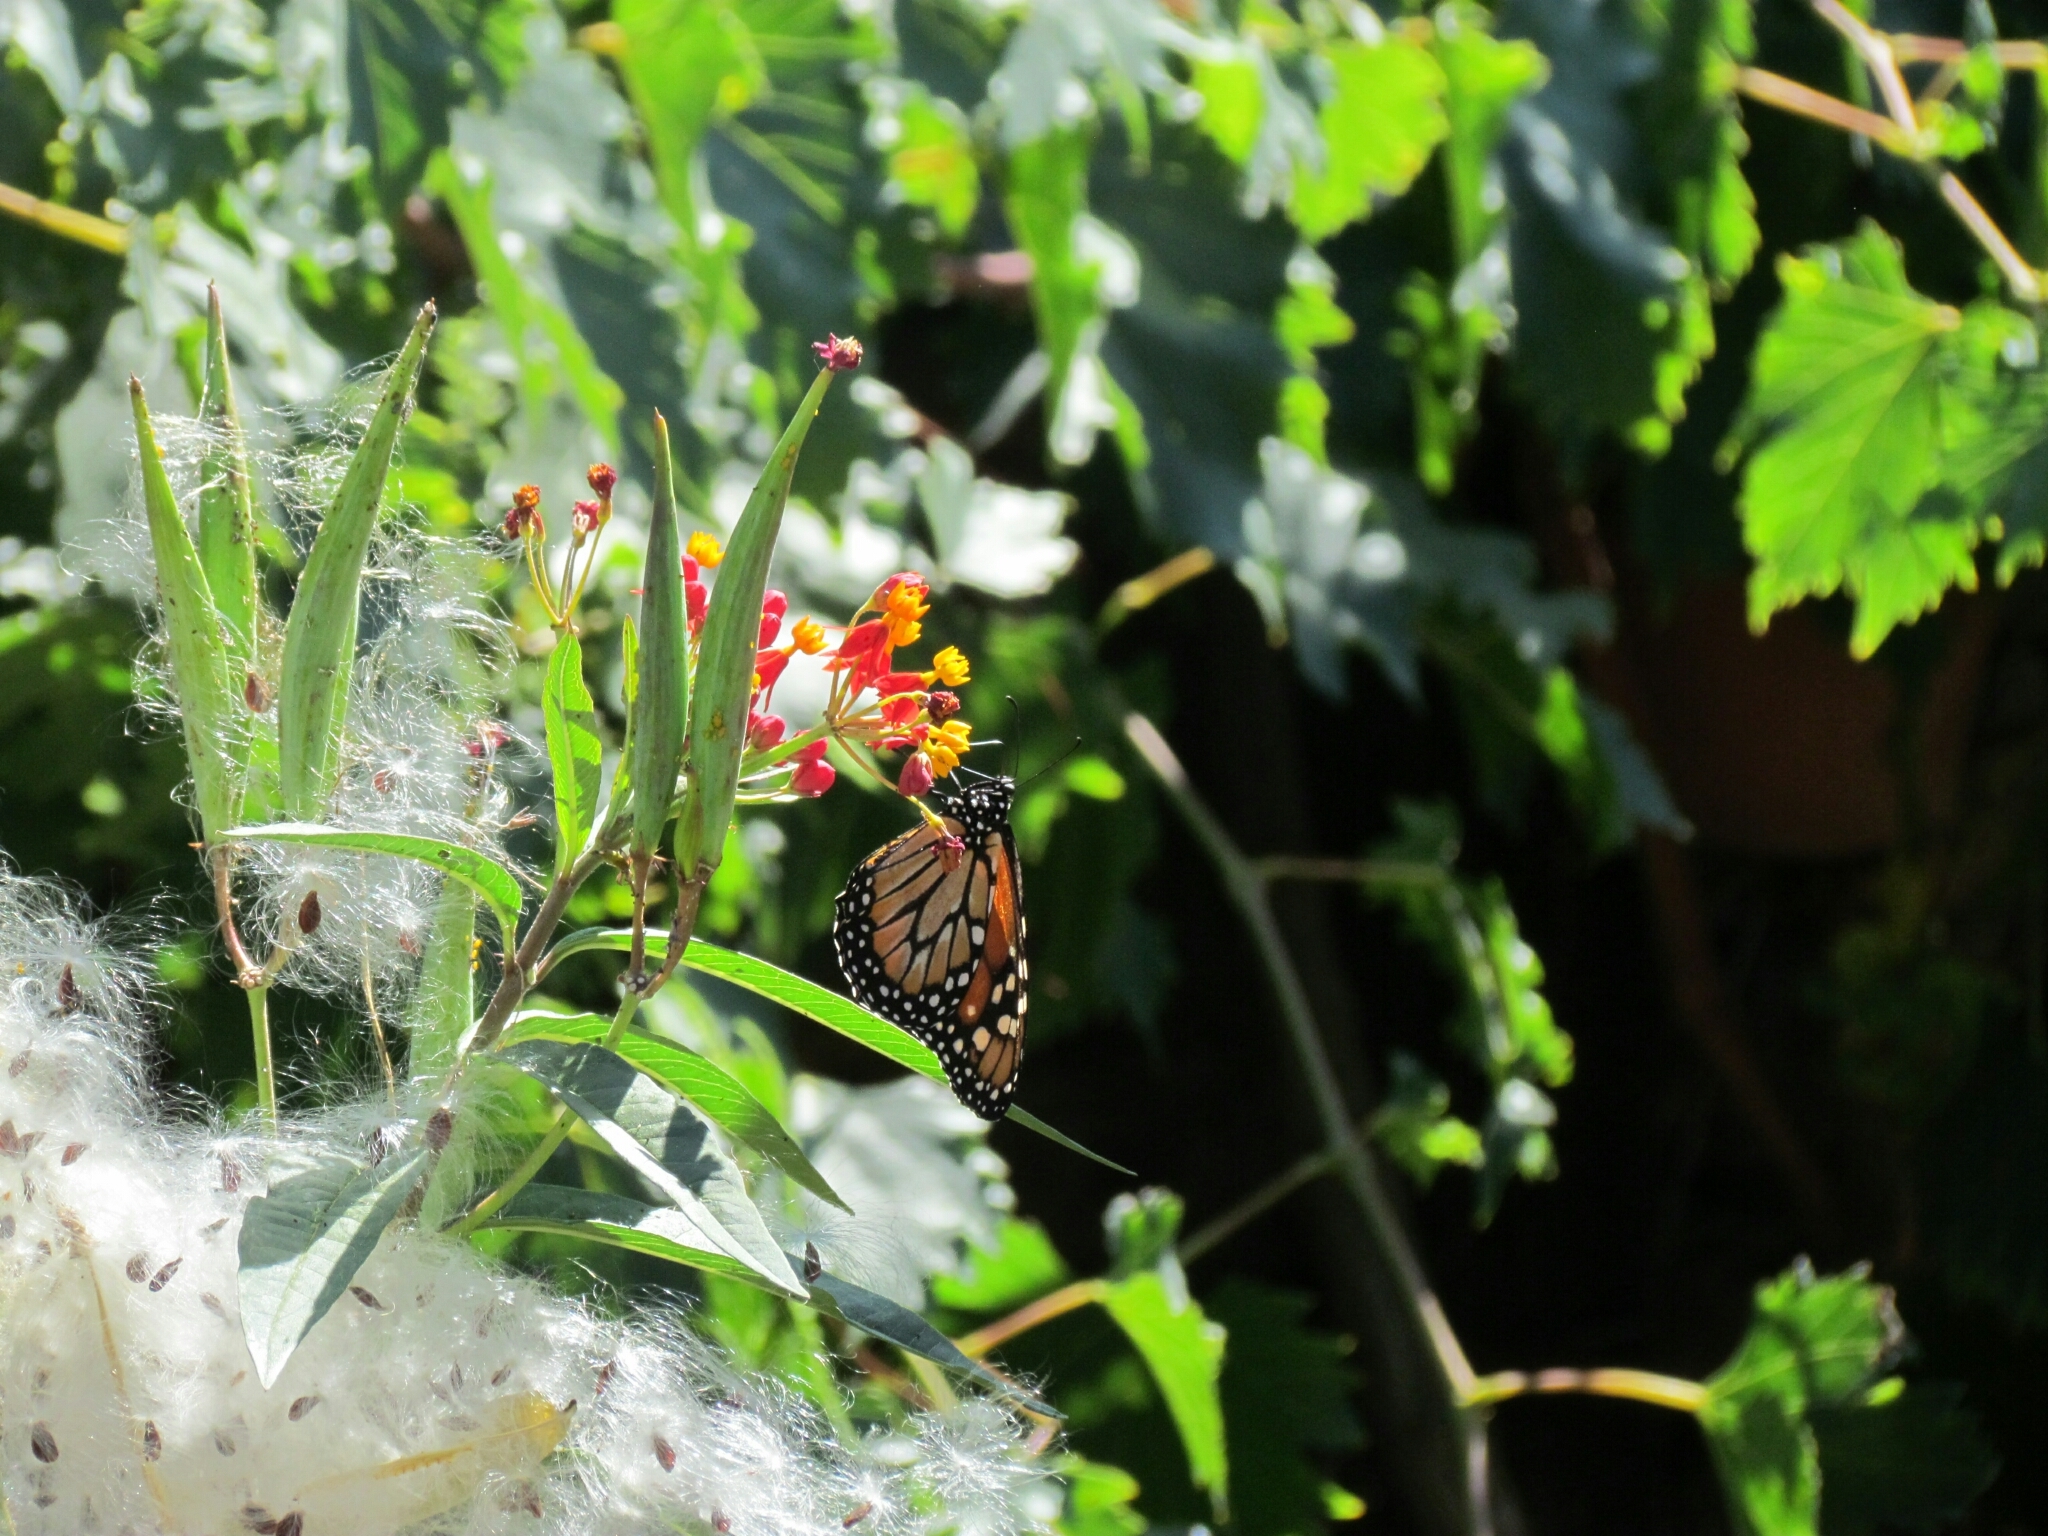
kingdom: Animalia
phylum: Arthropoda
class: Insecta
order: Lepidoptera
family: Nymphalidae
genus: Danaus
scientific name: Danaus erippus
